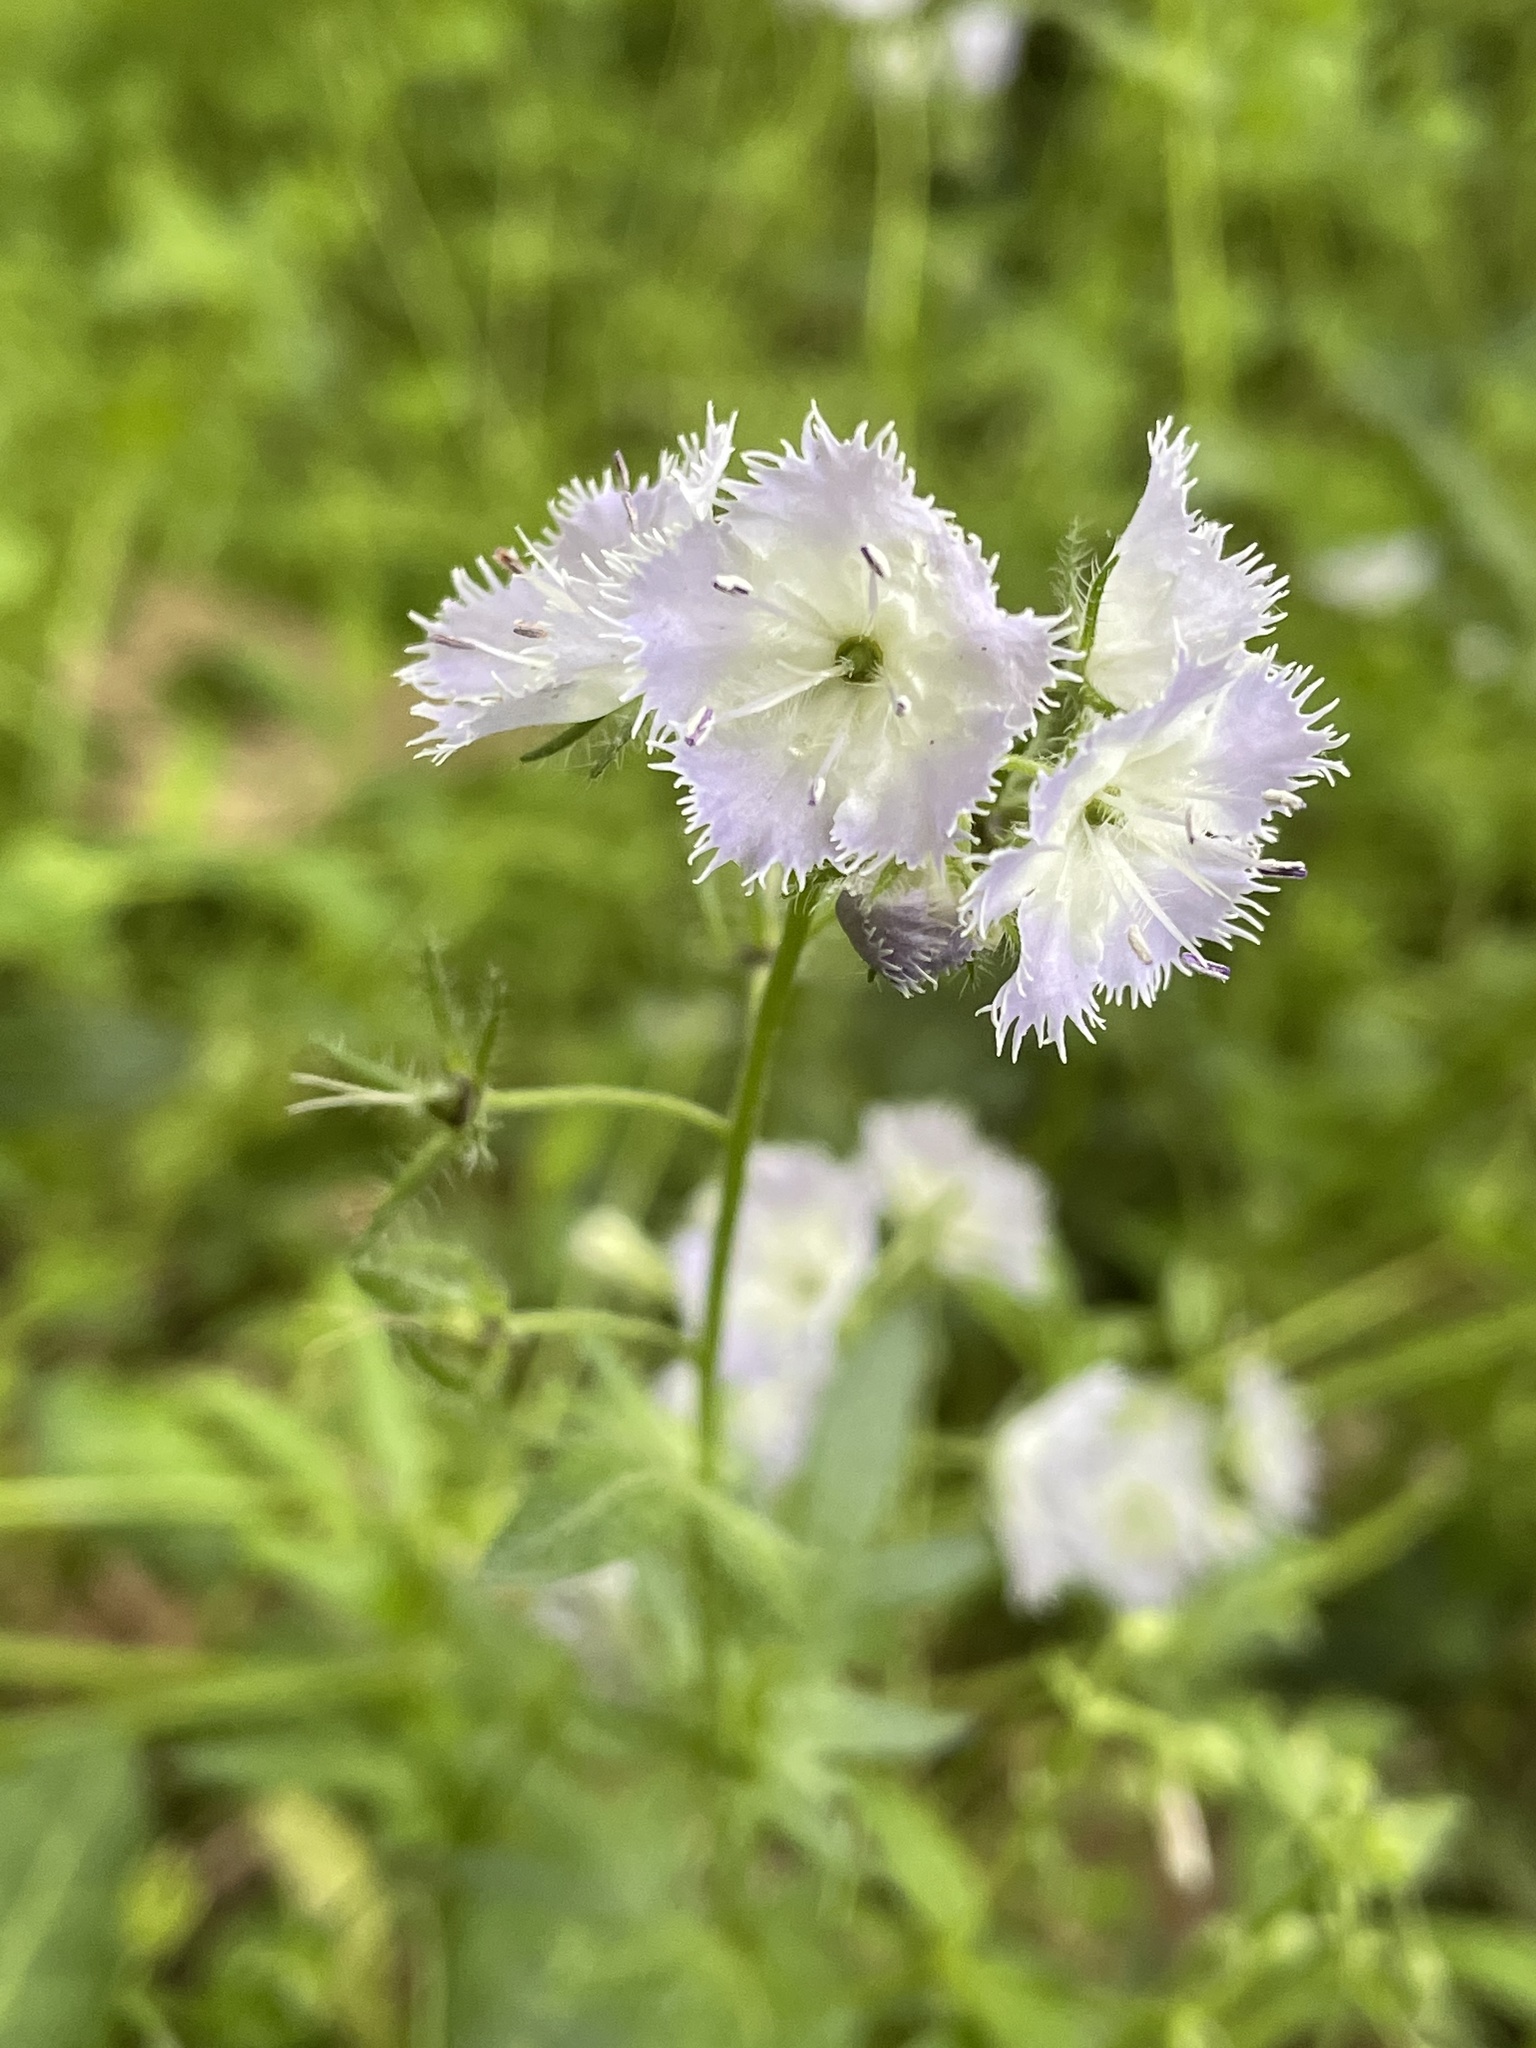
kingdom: Plantae
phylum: Tracheophyta
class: Magnoliopsida
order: Boraginales
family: Hydrophyllaceae
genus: Phacelia
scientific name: Phacelia purshii
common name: Miami-mist
